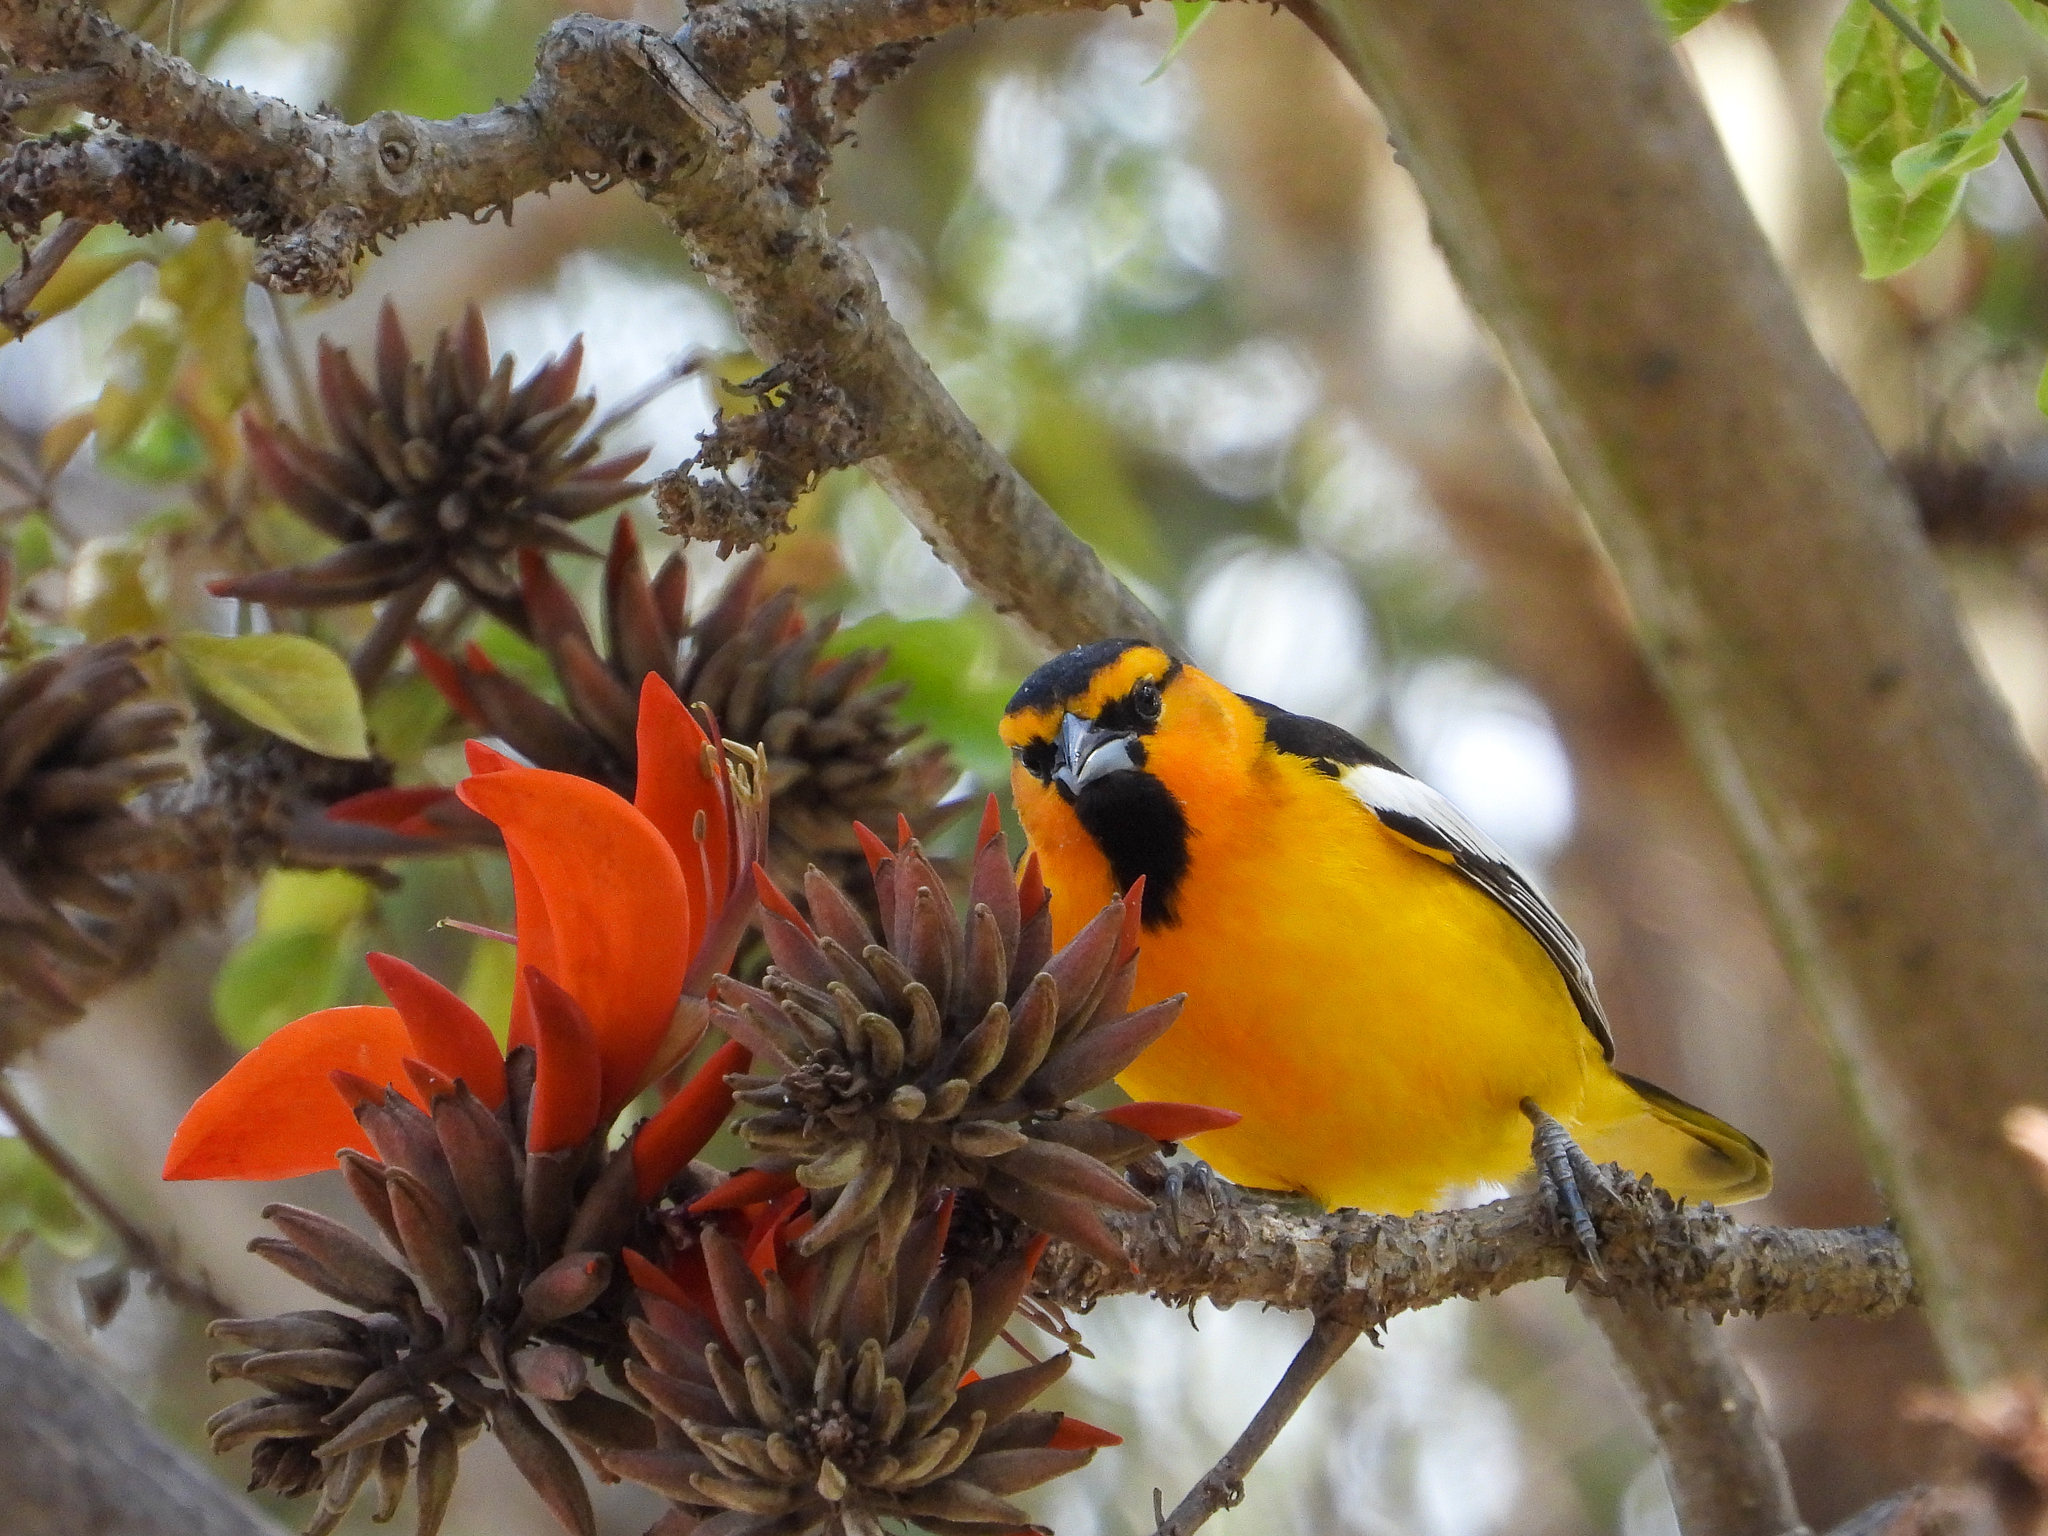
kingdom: Animalia
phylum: Chordata
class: Aves
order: Passeriformes
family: Icteridae
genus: Icterus
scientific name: Icterus bullockii
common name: Bullock's oriole
